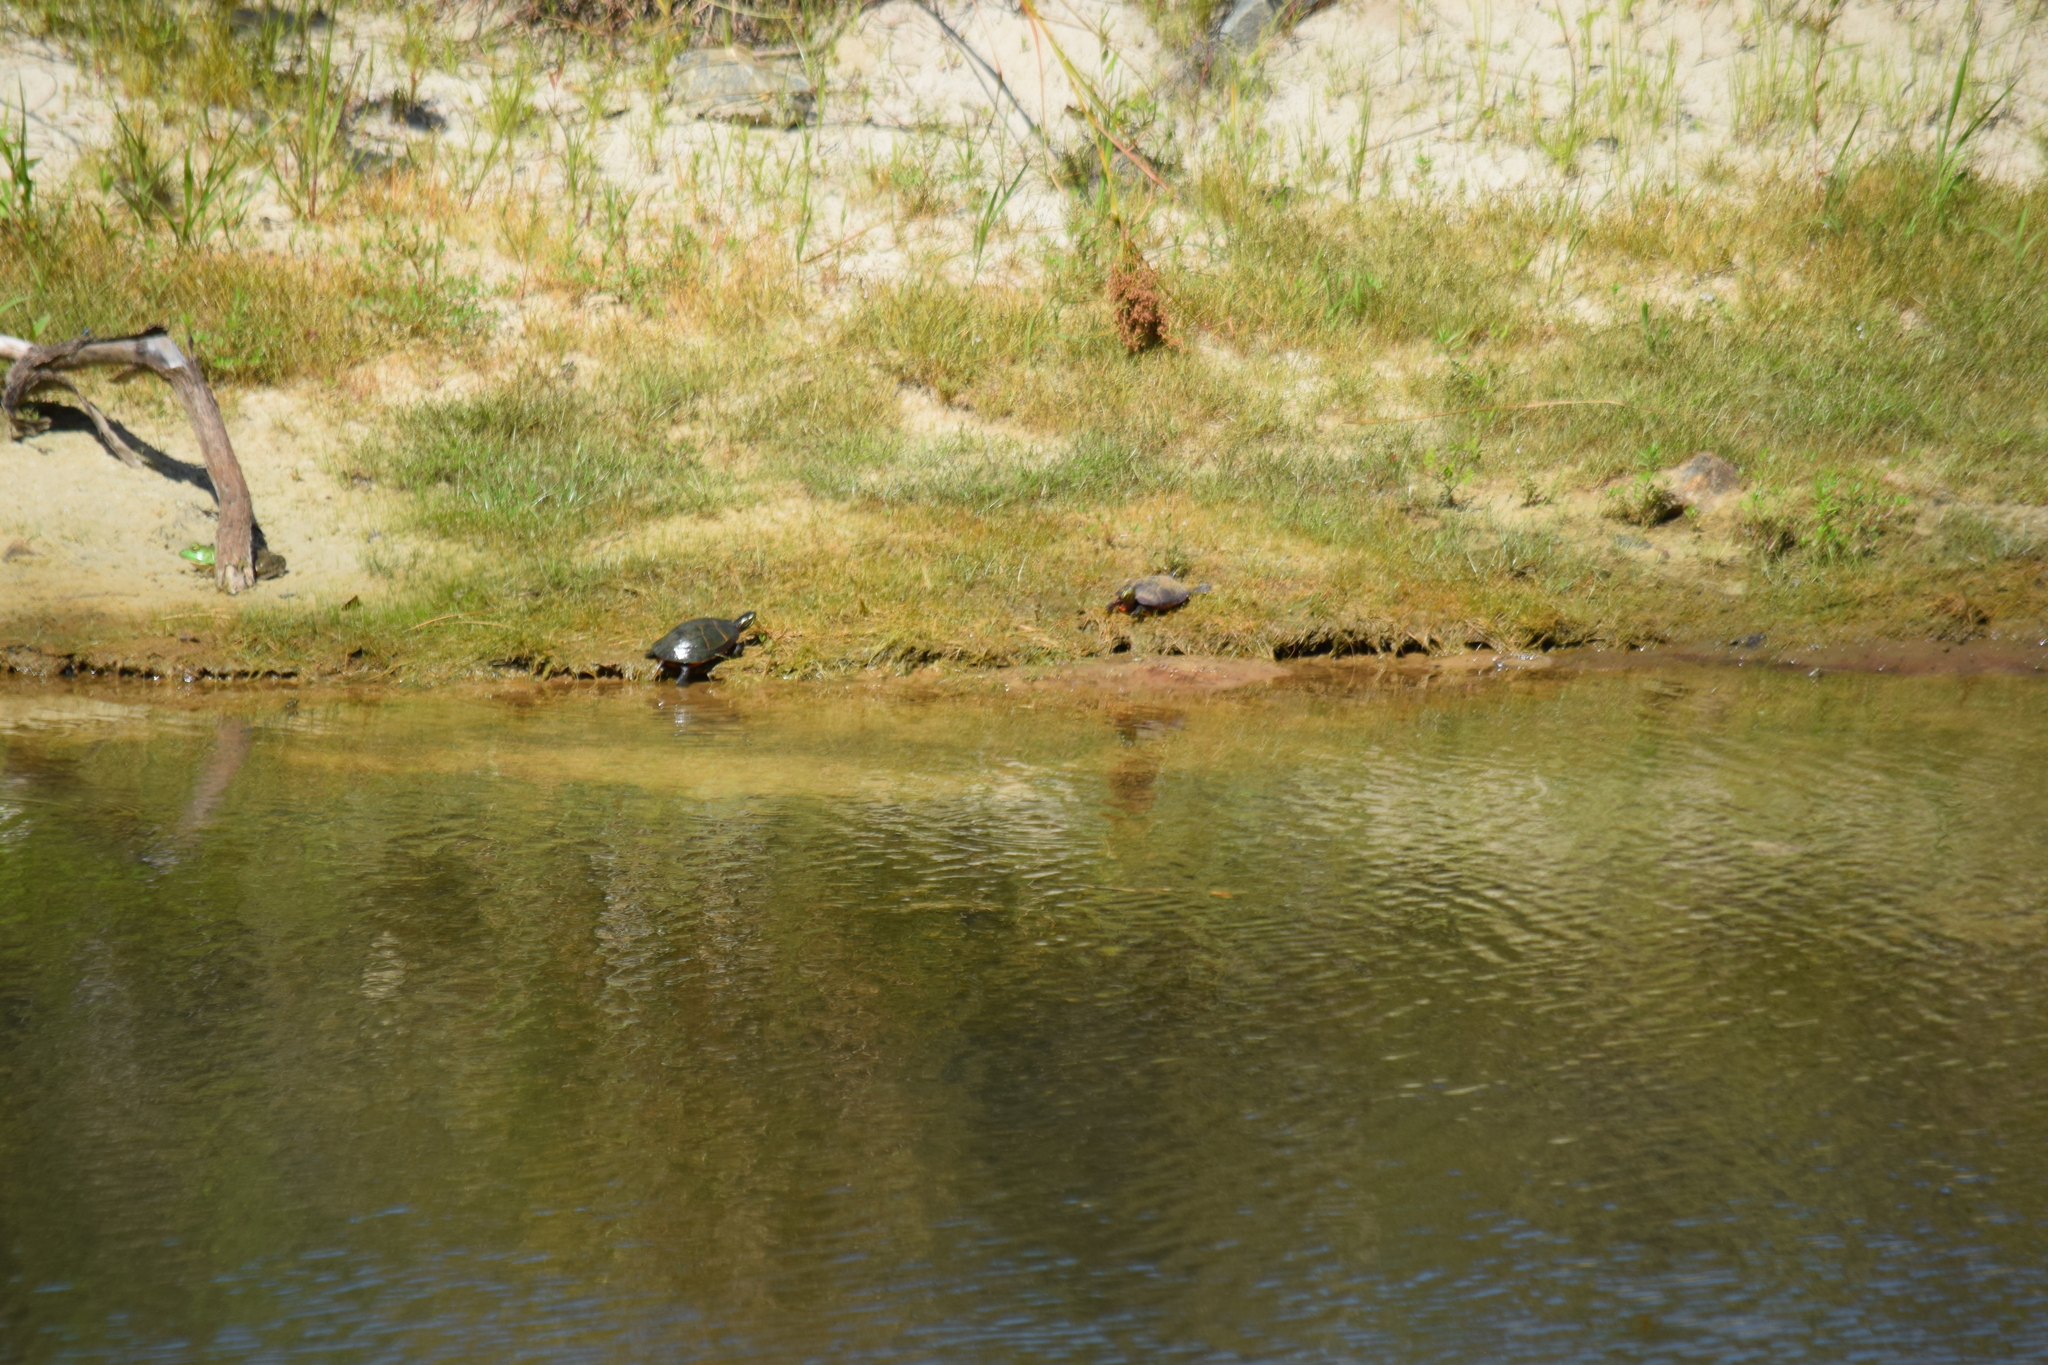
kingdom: Animalia
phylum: Chordata
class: Amphibia
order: Anura
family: Ranidae
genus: Lithobates
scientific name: Lithobates catesbeianus
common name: American bullfrog
